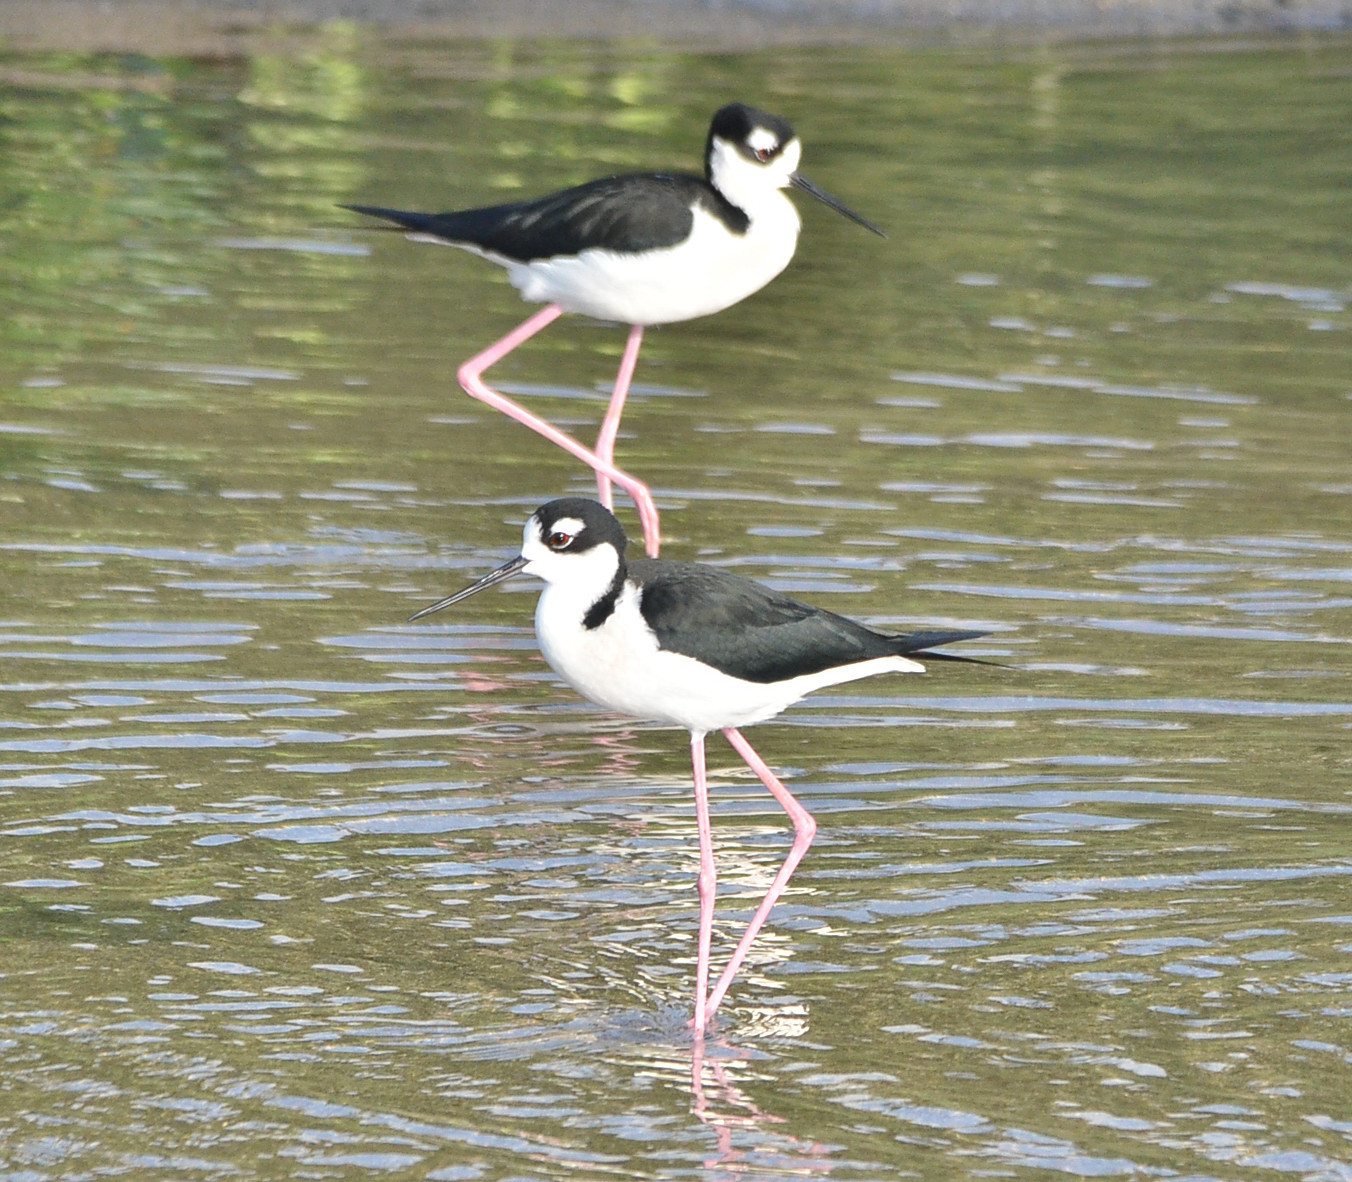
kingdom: Animalia
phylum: Chordata
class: Aves
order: Charadriiformes
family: Recurvirostridae
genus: Himantopus
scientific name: Himantopus mexicanus
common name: Black-necked stilt
